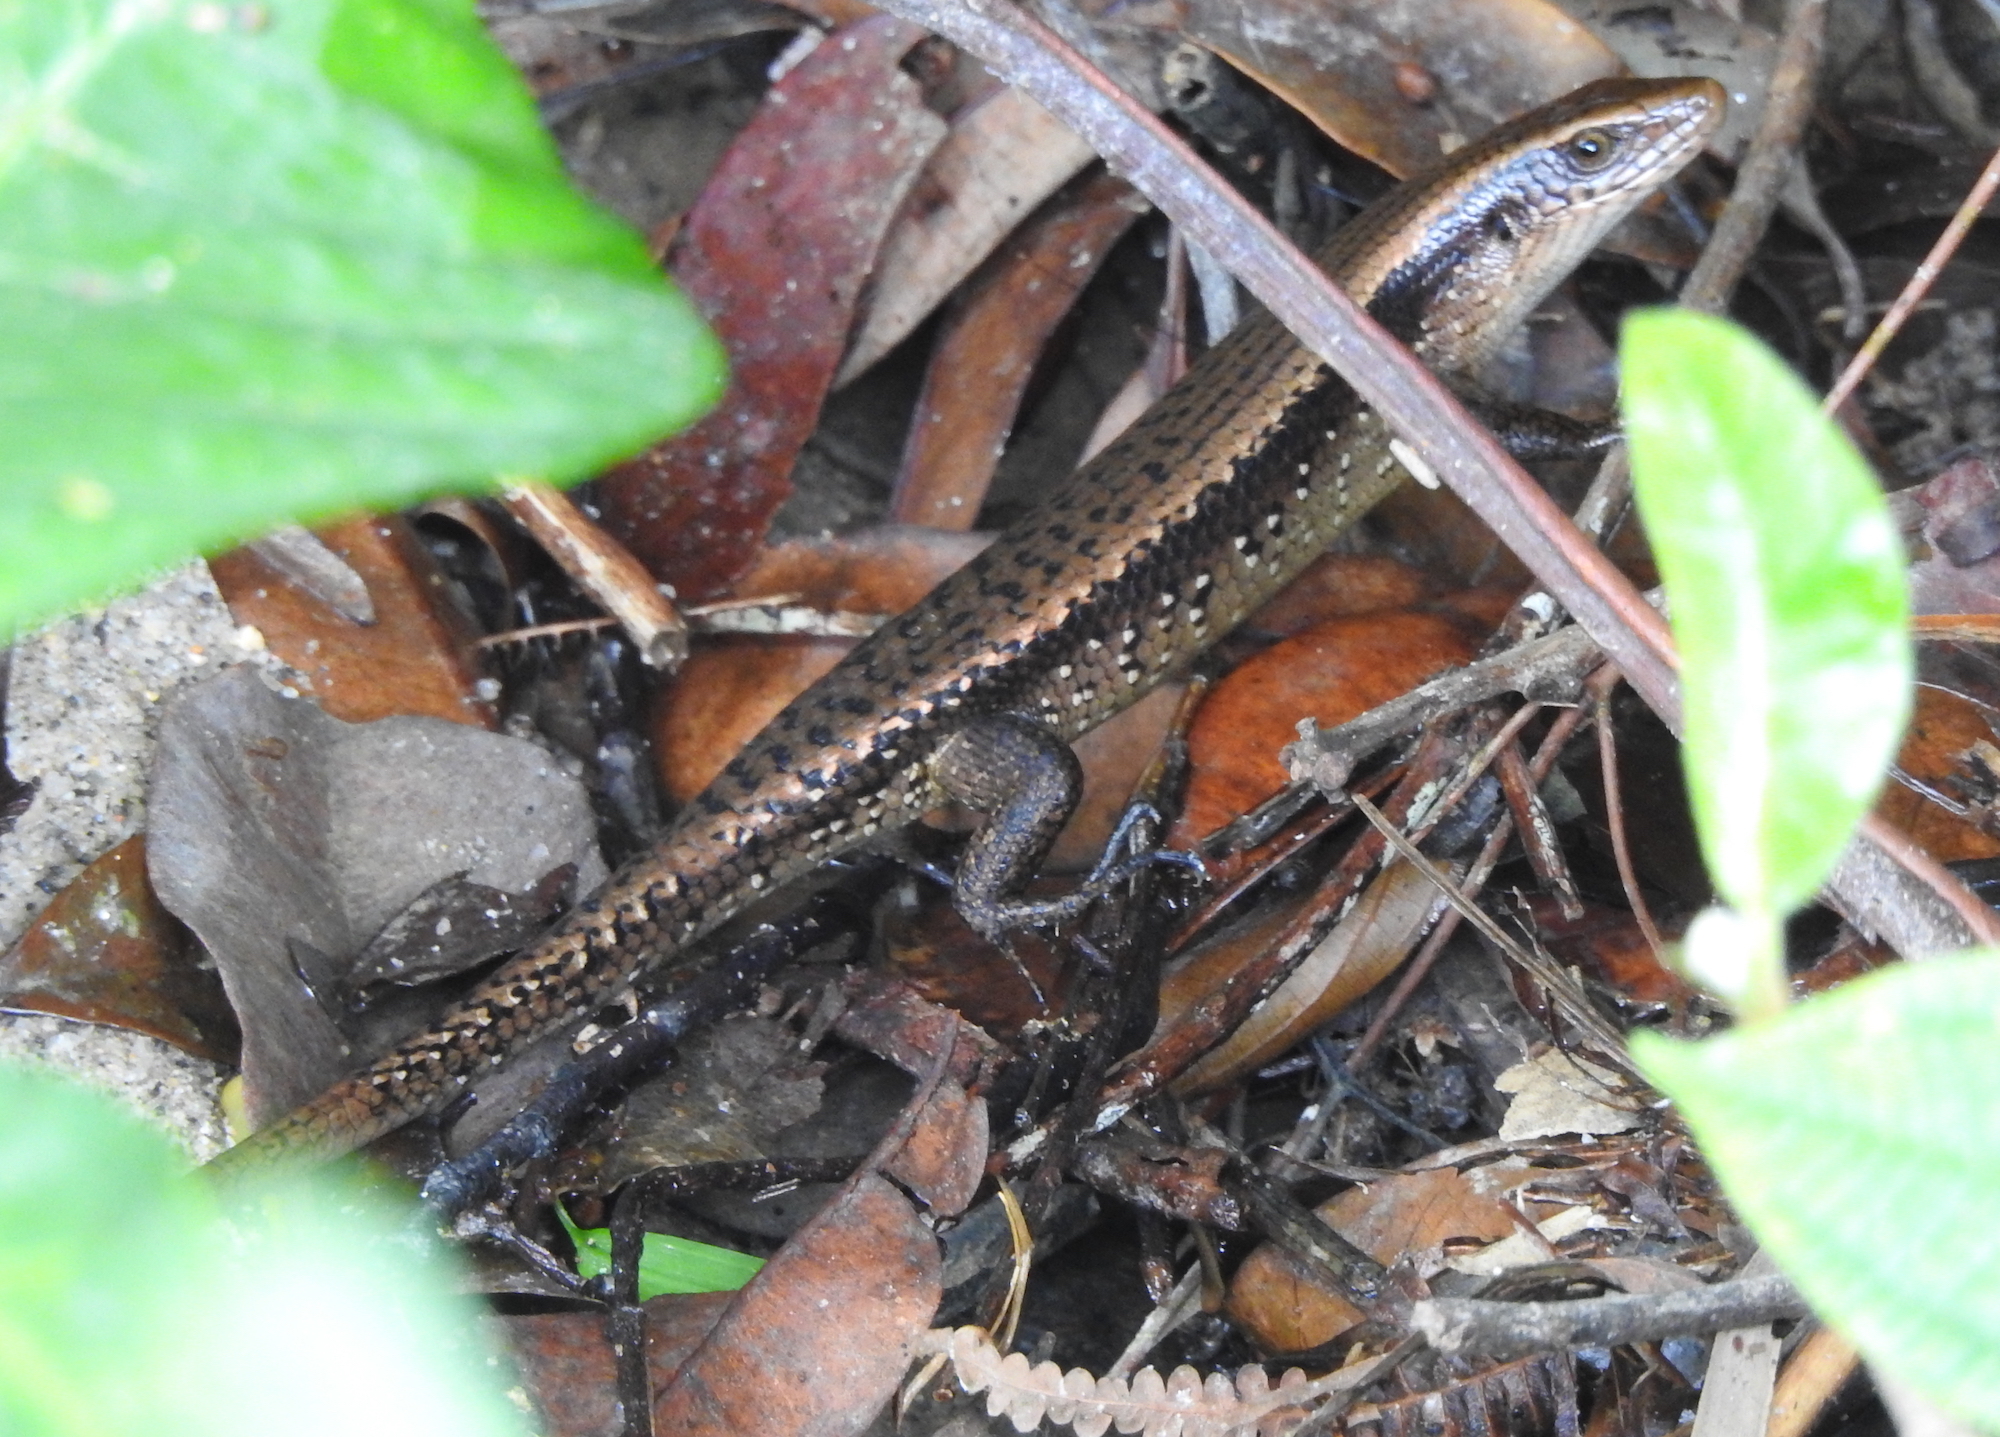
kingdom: Animalia
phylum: Chordata
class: Squamata
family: Scincidae
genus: Eutropis
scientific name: Eutropis multifasciata
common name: Common mabuya
